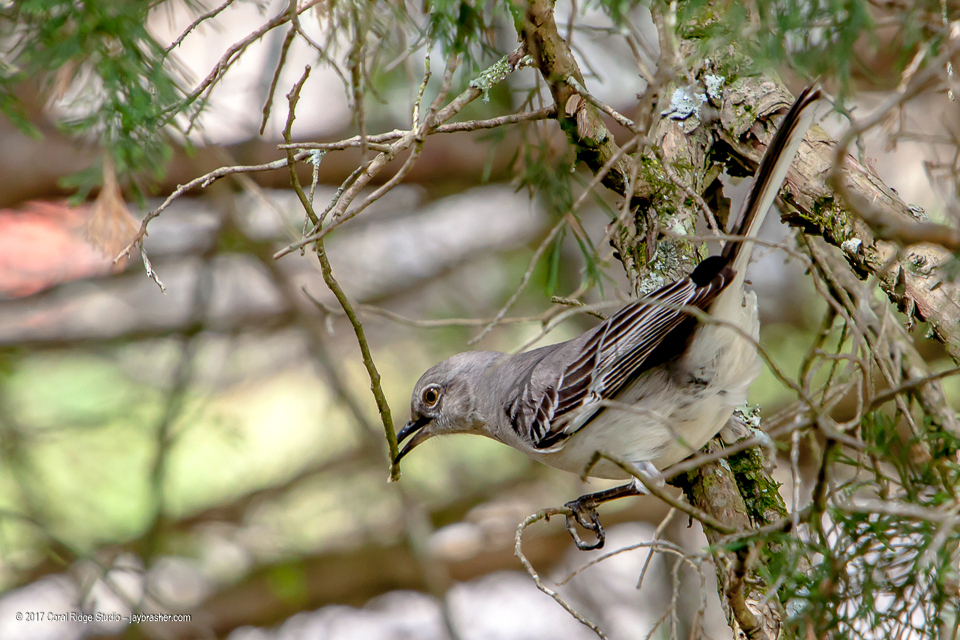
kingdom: Animalia
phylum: Chordata
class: Aves
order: Passeriformes
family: Mimidae
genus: Mimus
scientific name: Mimus polyglottos
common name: Northern mockingbird
